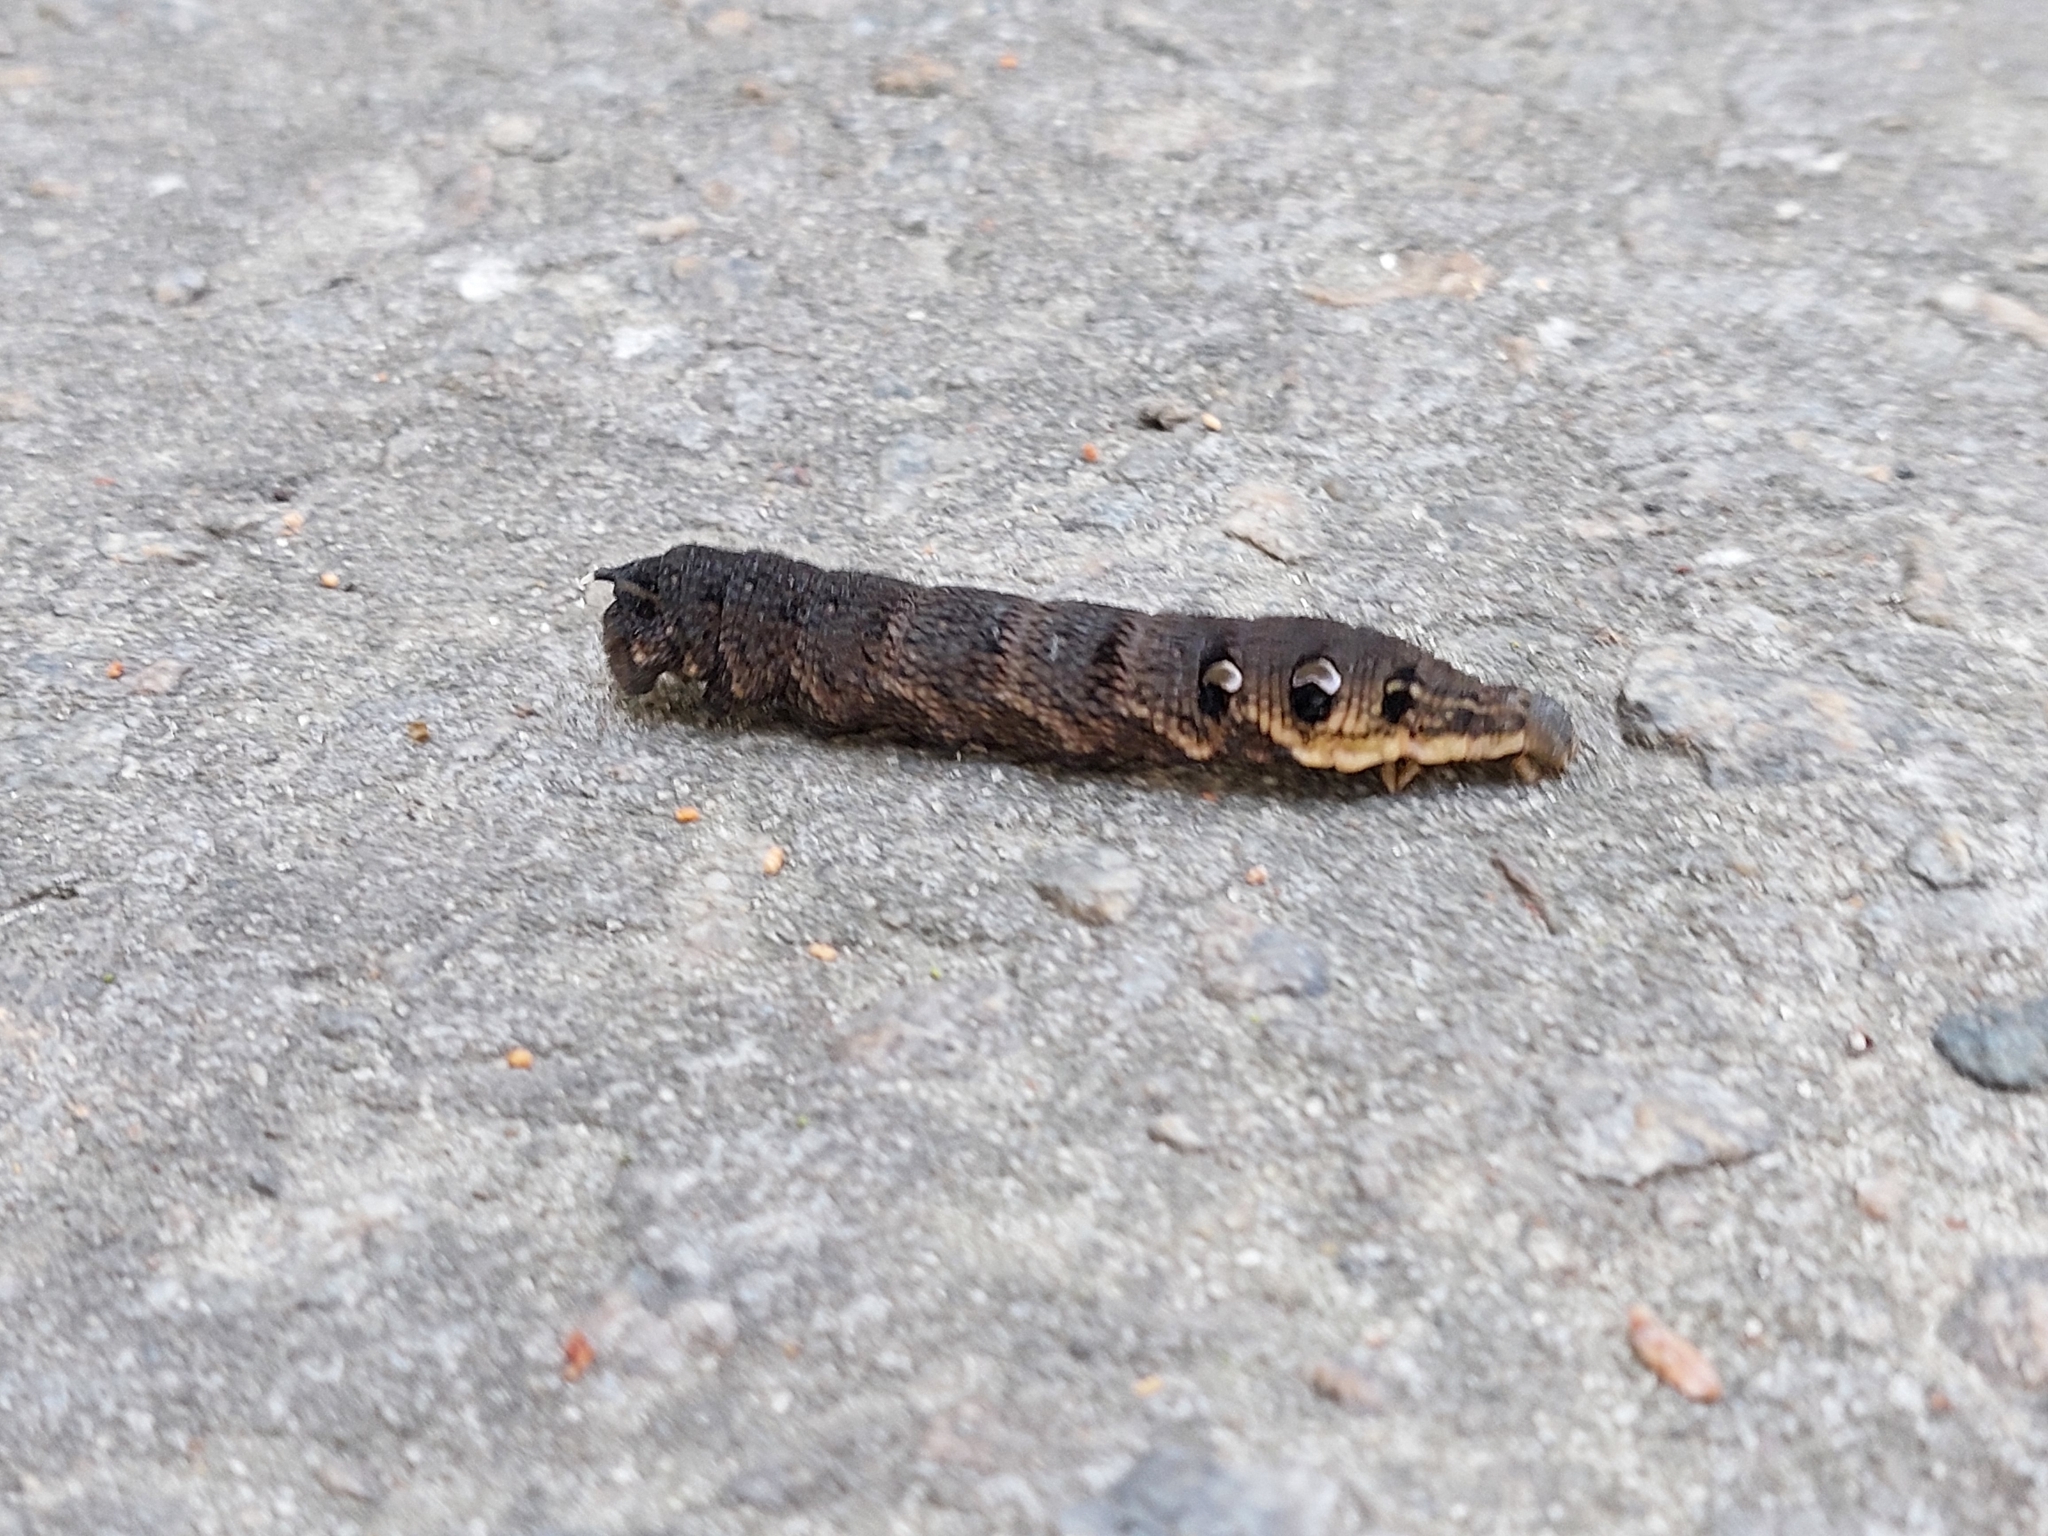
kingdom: Animalia
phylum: Arthropoda
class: Insecta
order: Lepidoptera
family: Sphingidae
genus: Deilephila
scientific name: Deilephila elpenor
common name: Elephant hawk-moth
